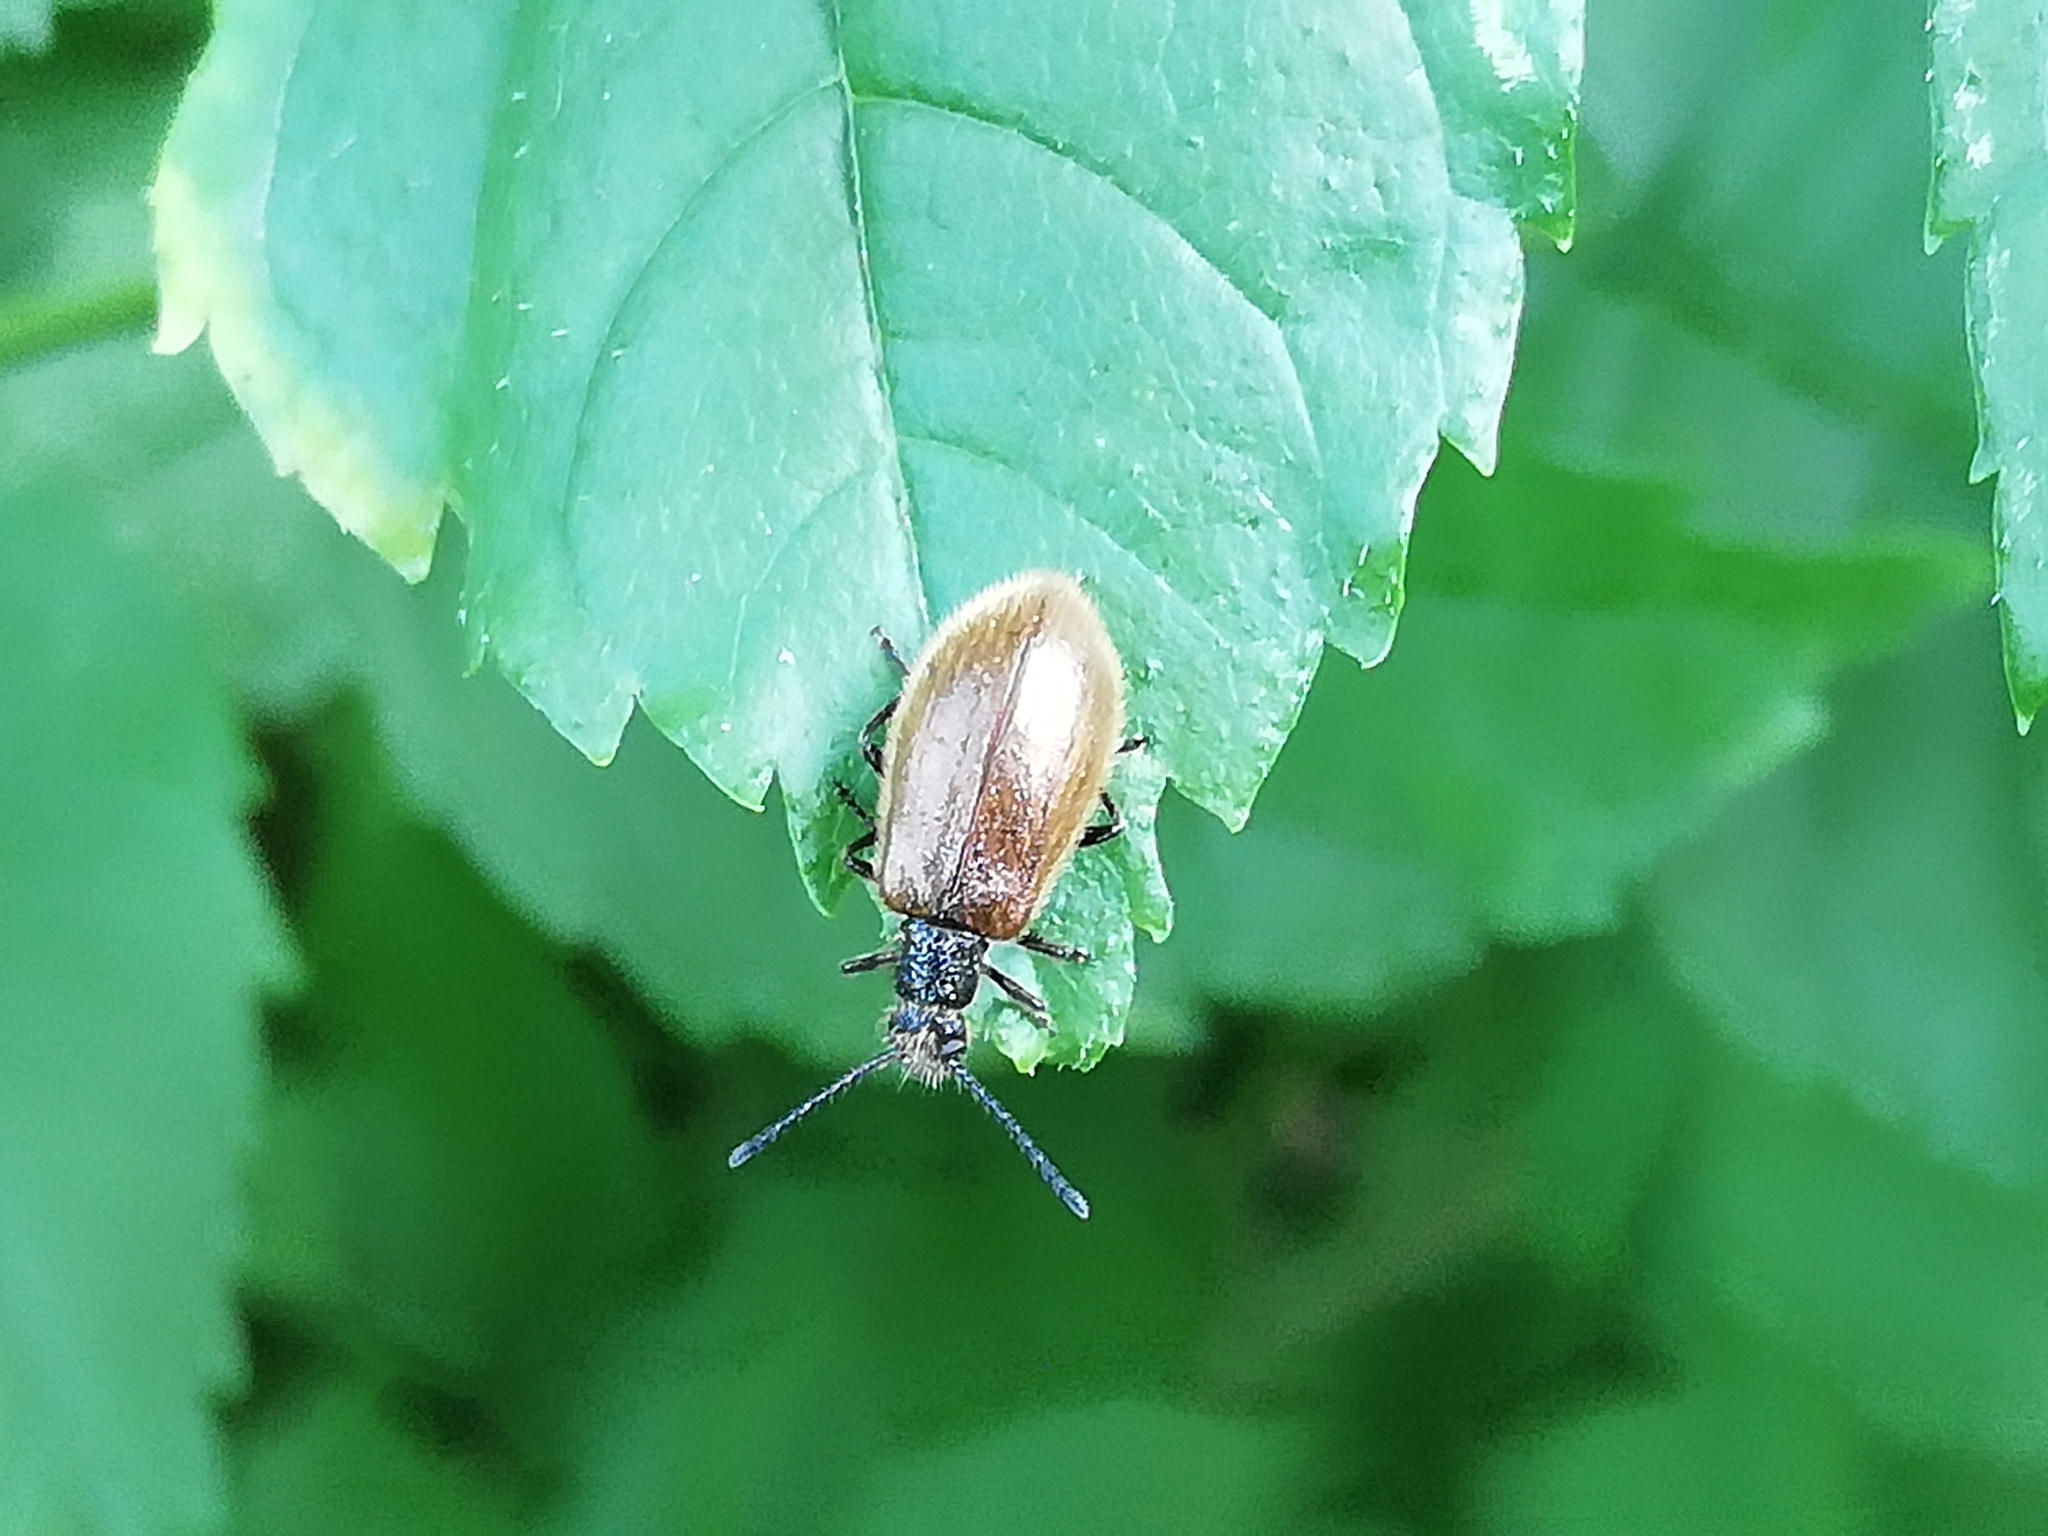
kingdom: Animalia
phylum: Arthropoda
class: Insecta
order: Coleoptera
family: Tenebrionidae
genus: Lagria
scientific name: Lagria hirta
